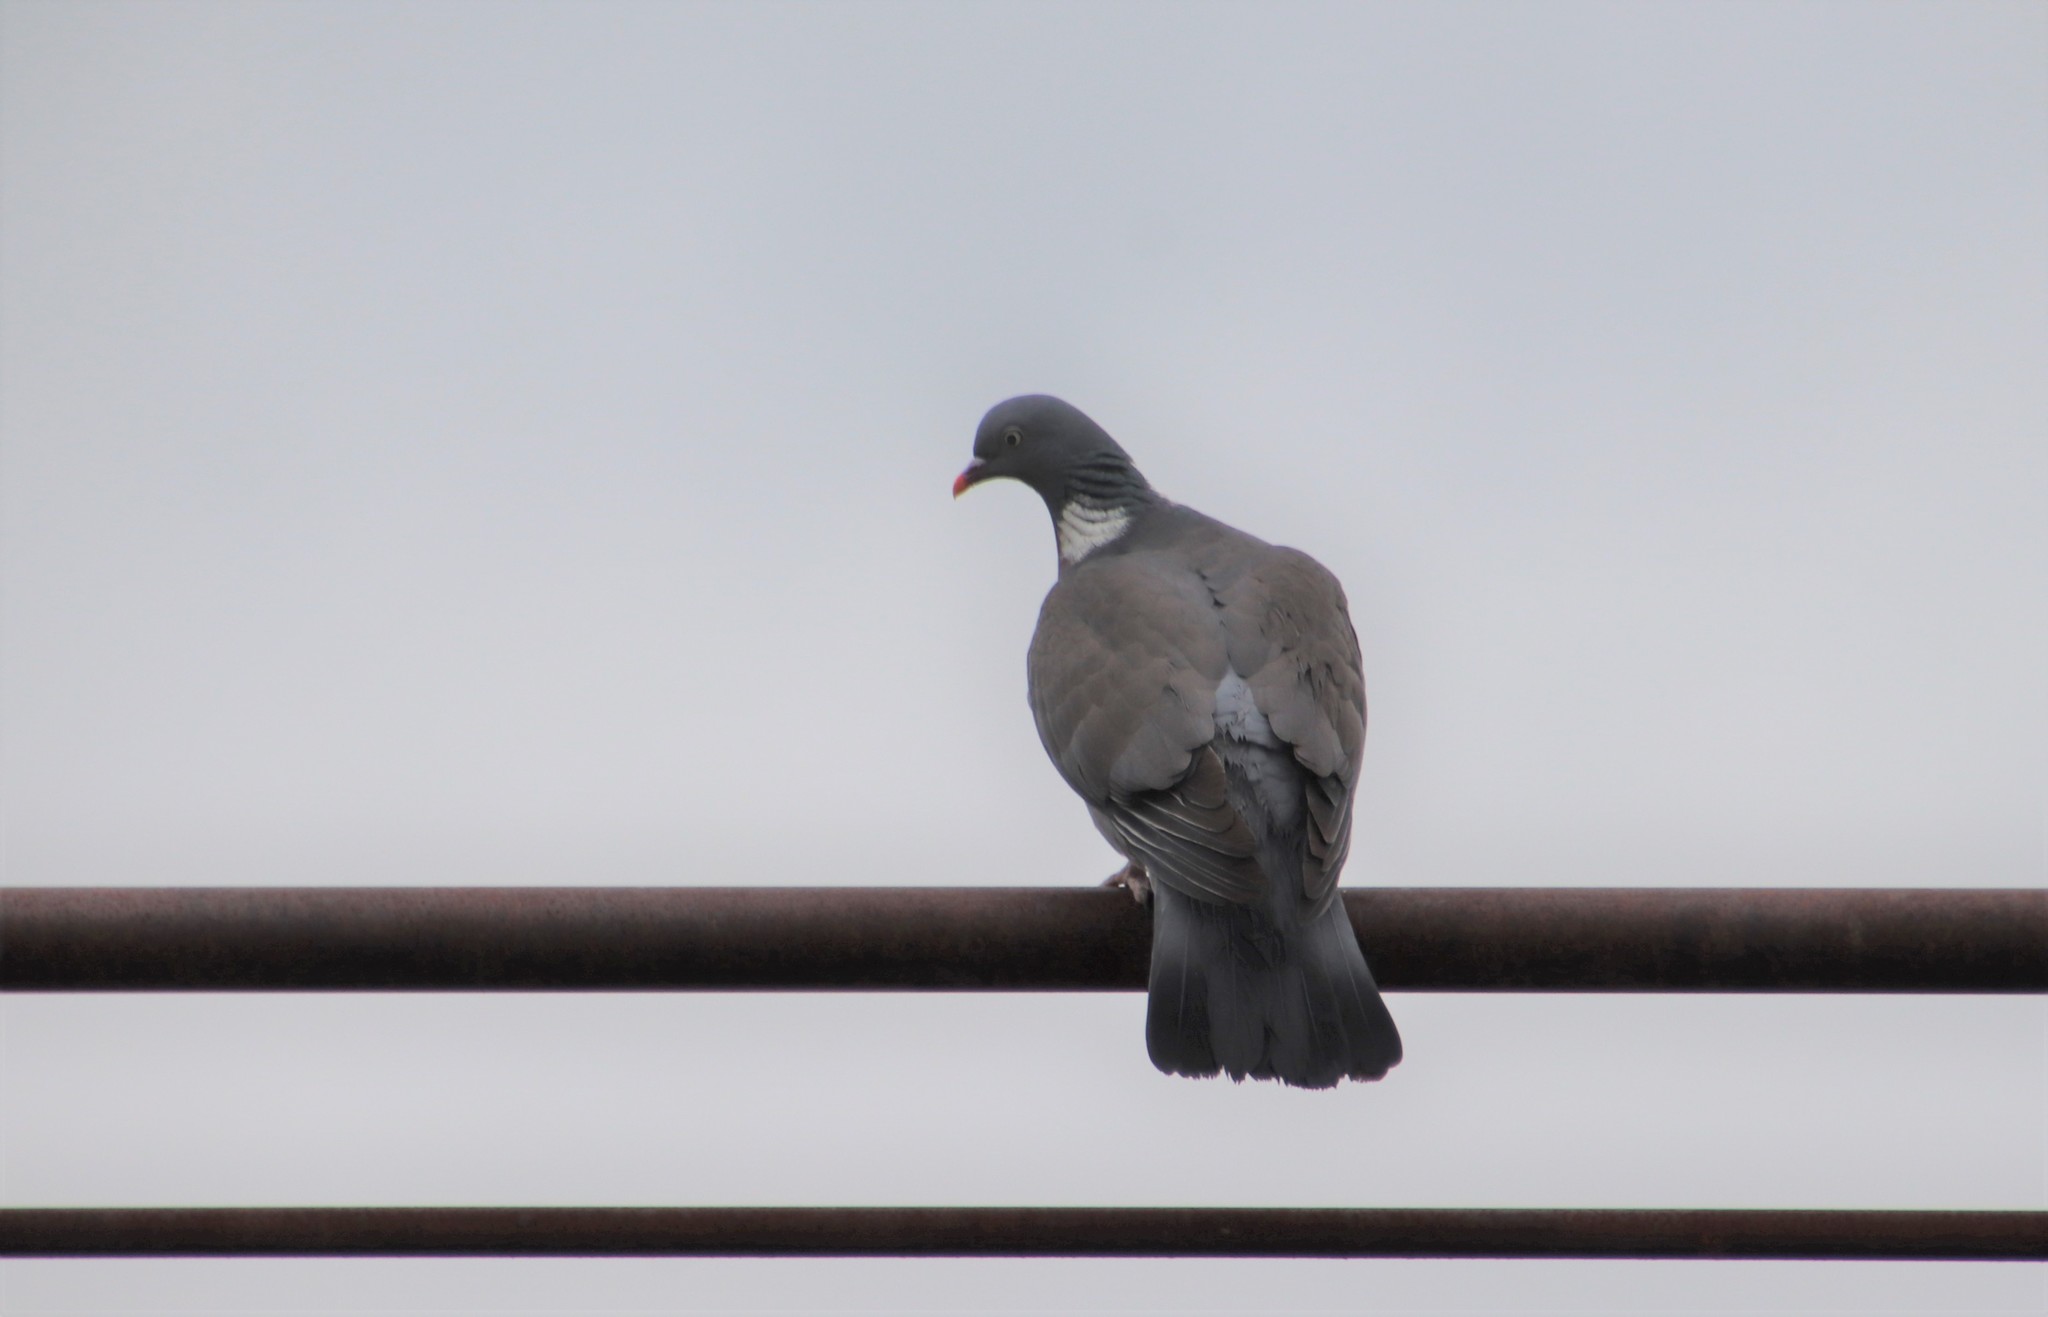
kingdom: Animalia
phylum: Chordata
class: Aves
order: Columbiformes
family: Columbidae
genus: Columba
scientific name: Columba palumbus
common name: Common wood pigeon
